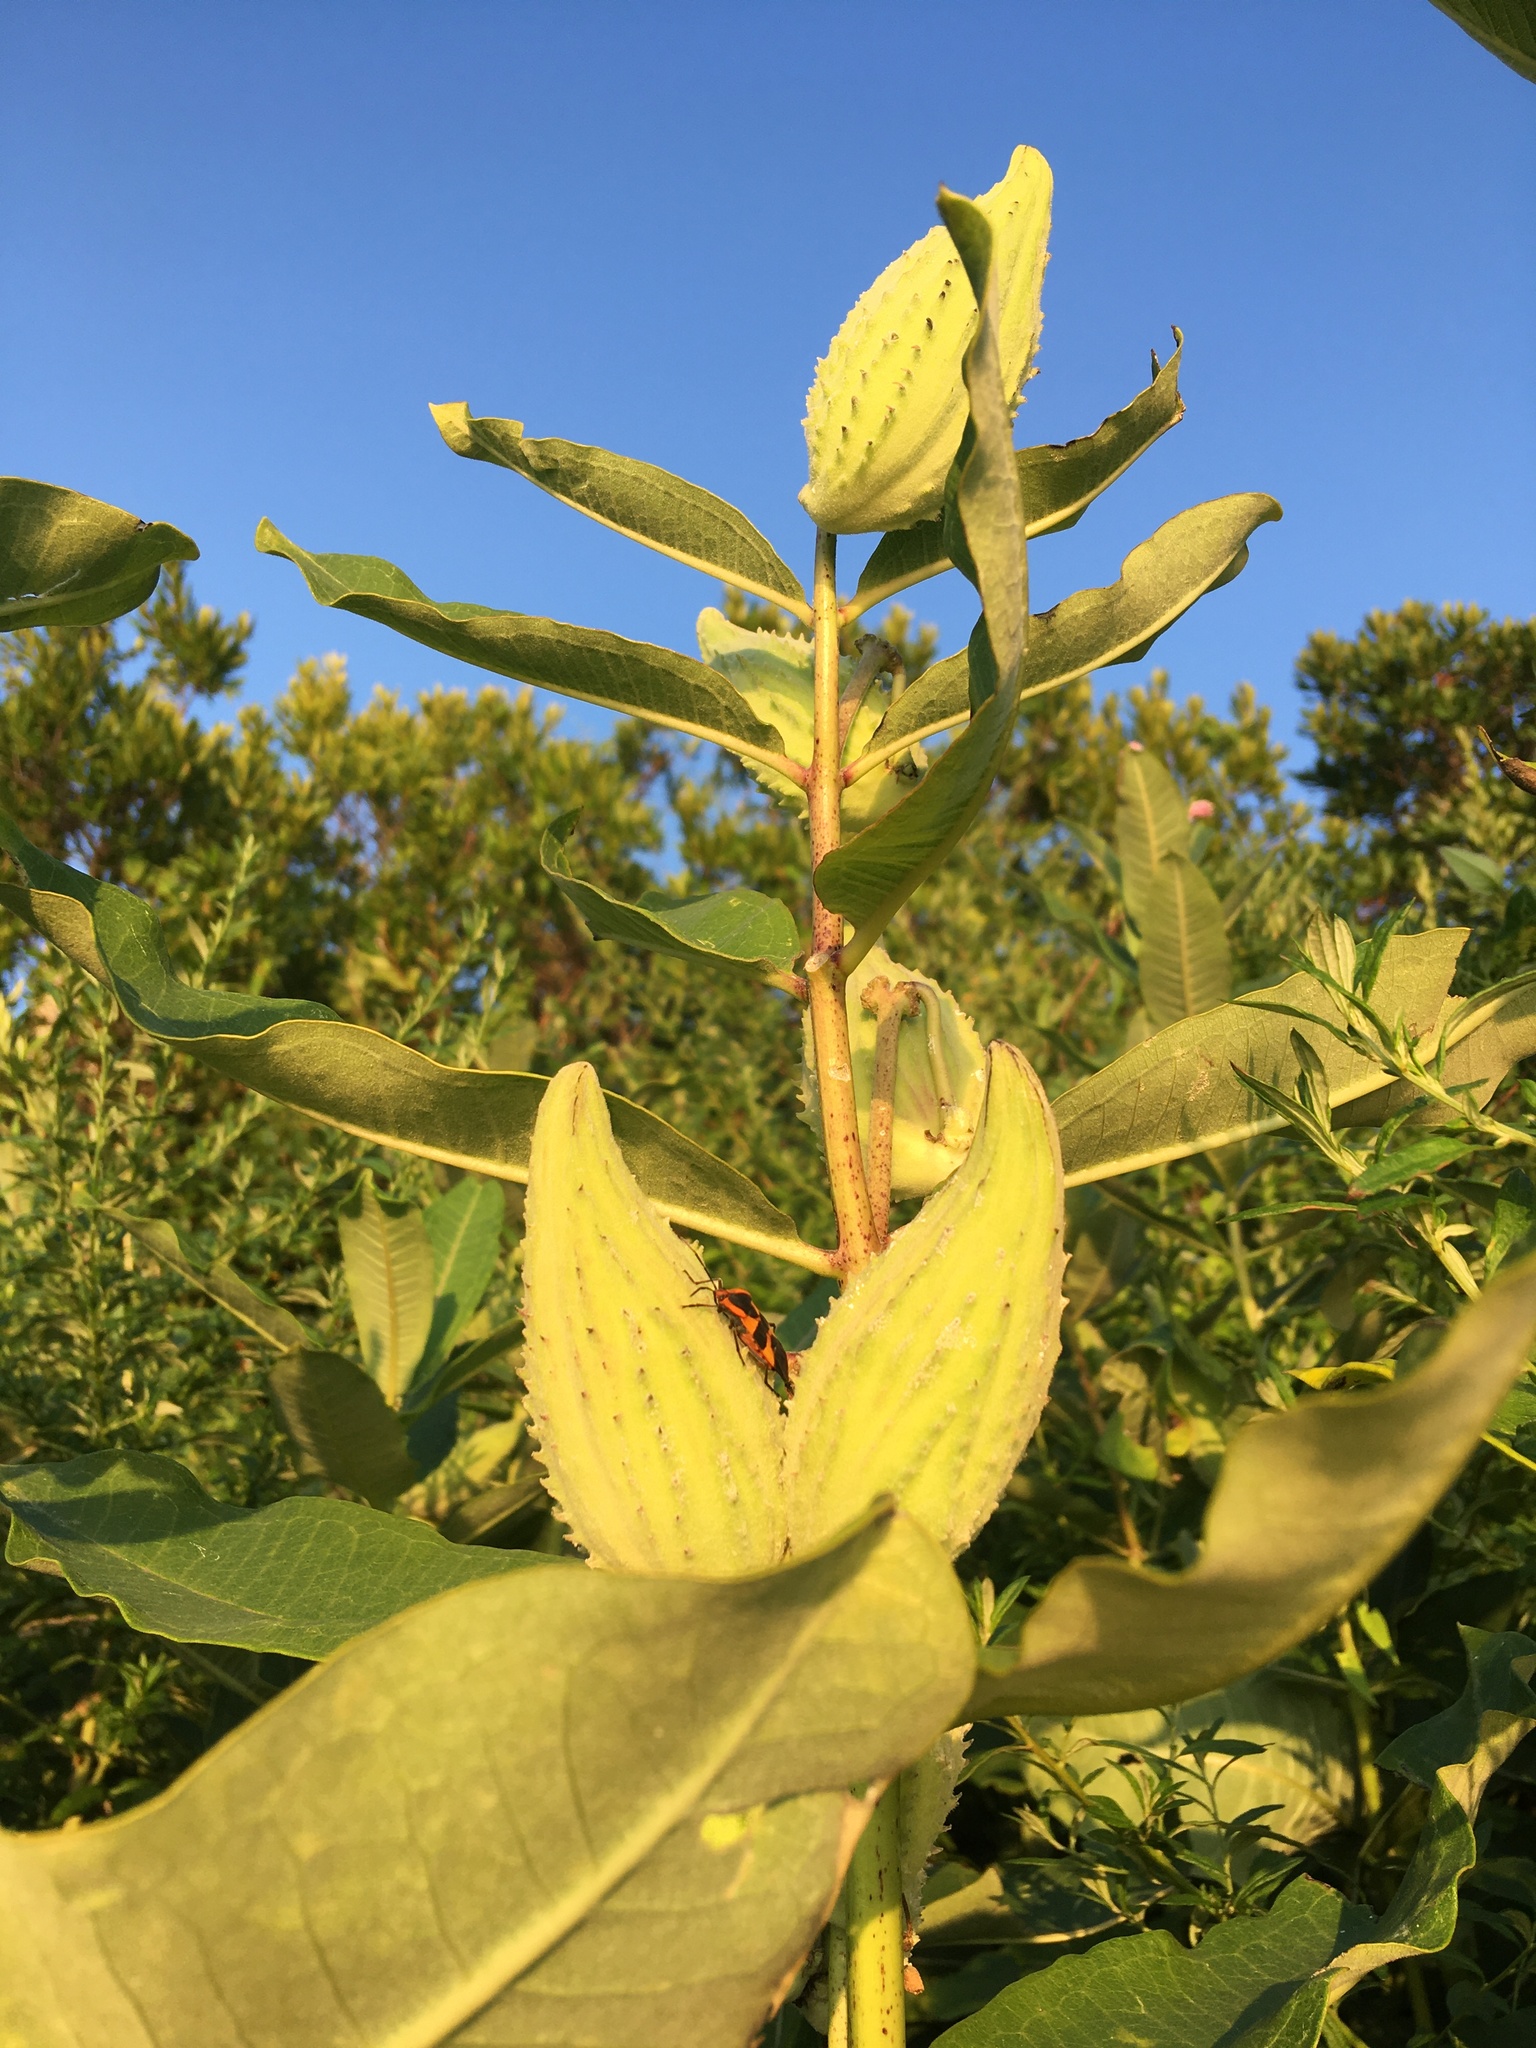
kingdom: Plantae
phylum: Tracheophyta
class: Magnoliopsida
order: Gentianales
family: Apocynaceae
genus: Asclepias
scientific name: Asclepias syriaca
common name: Common milkweed
